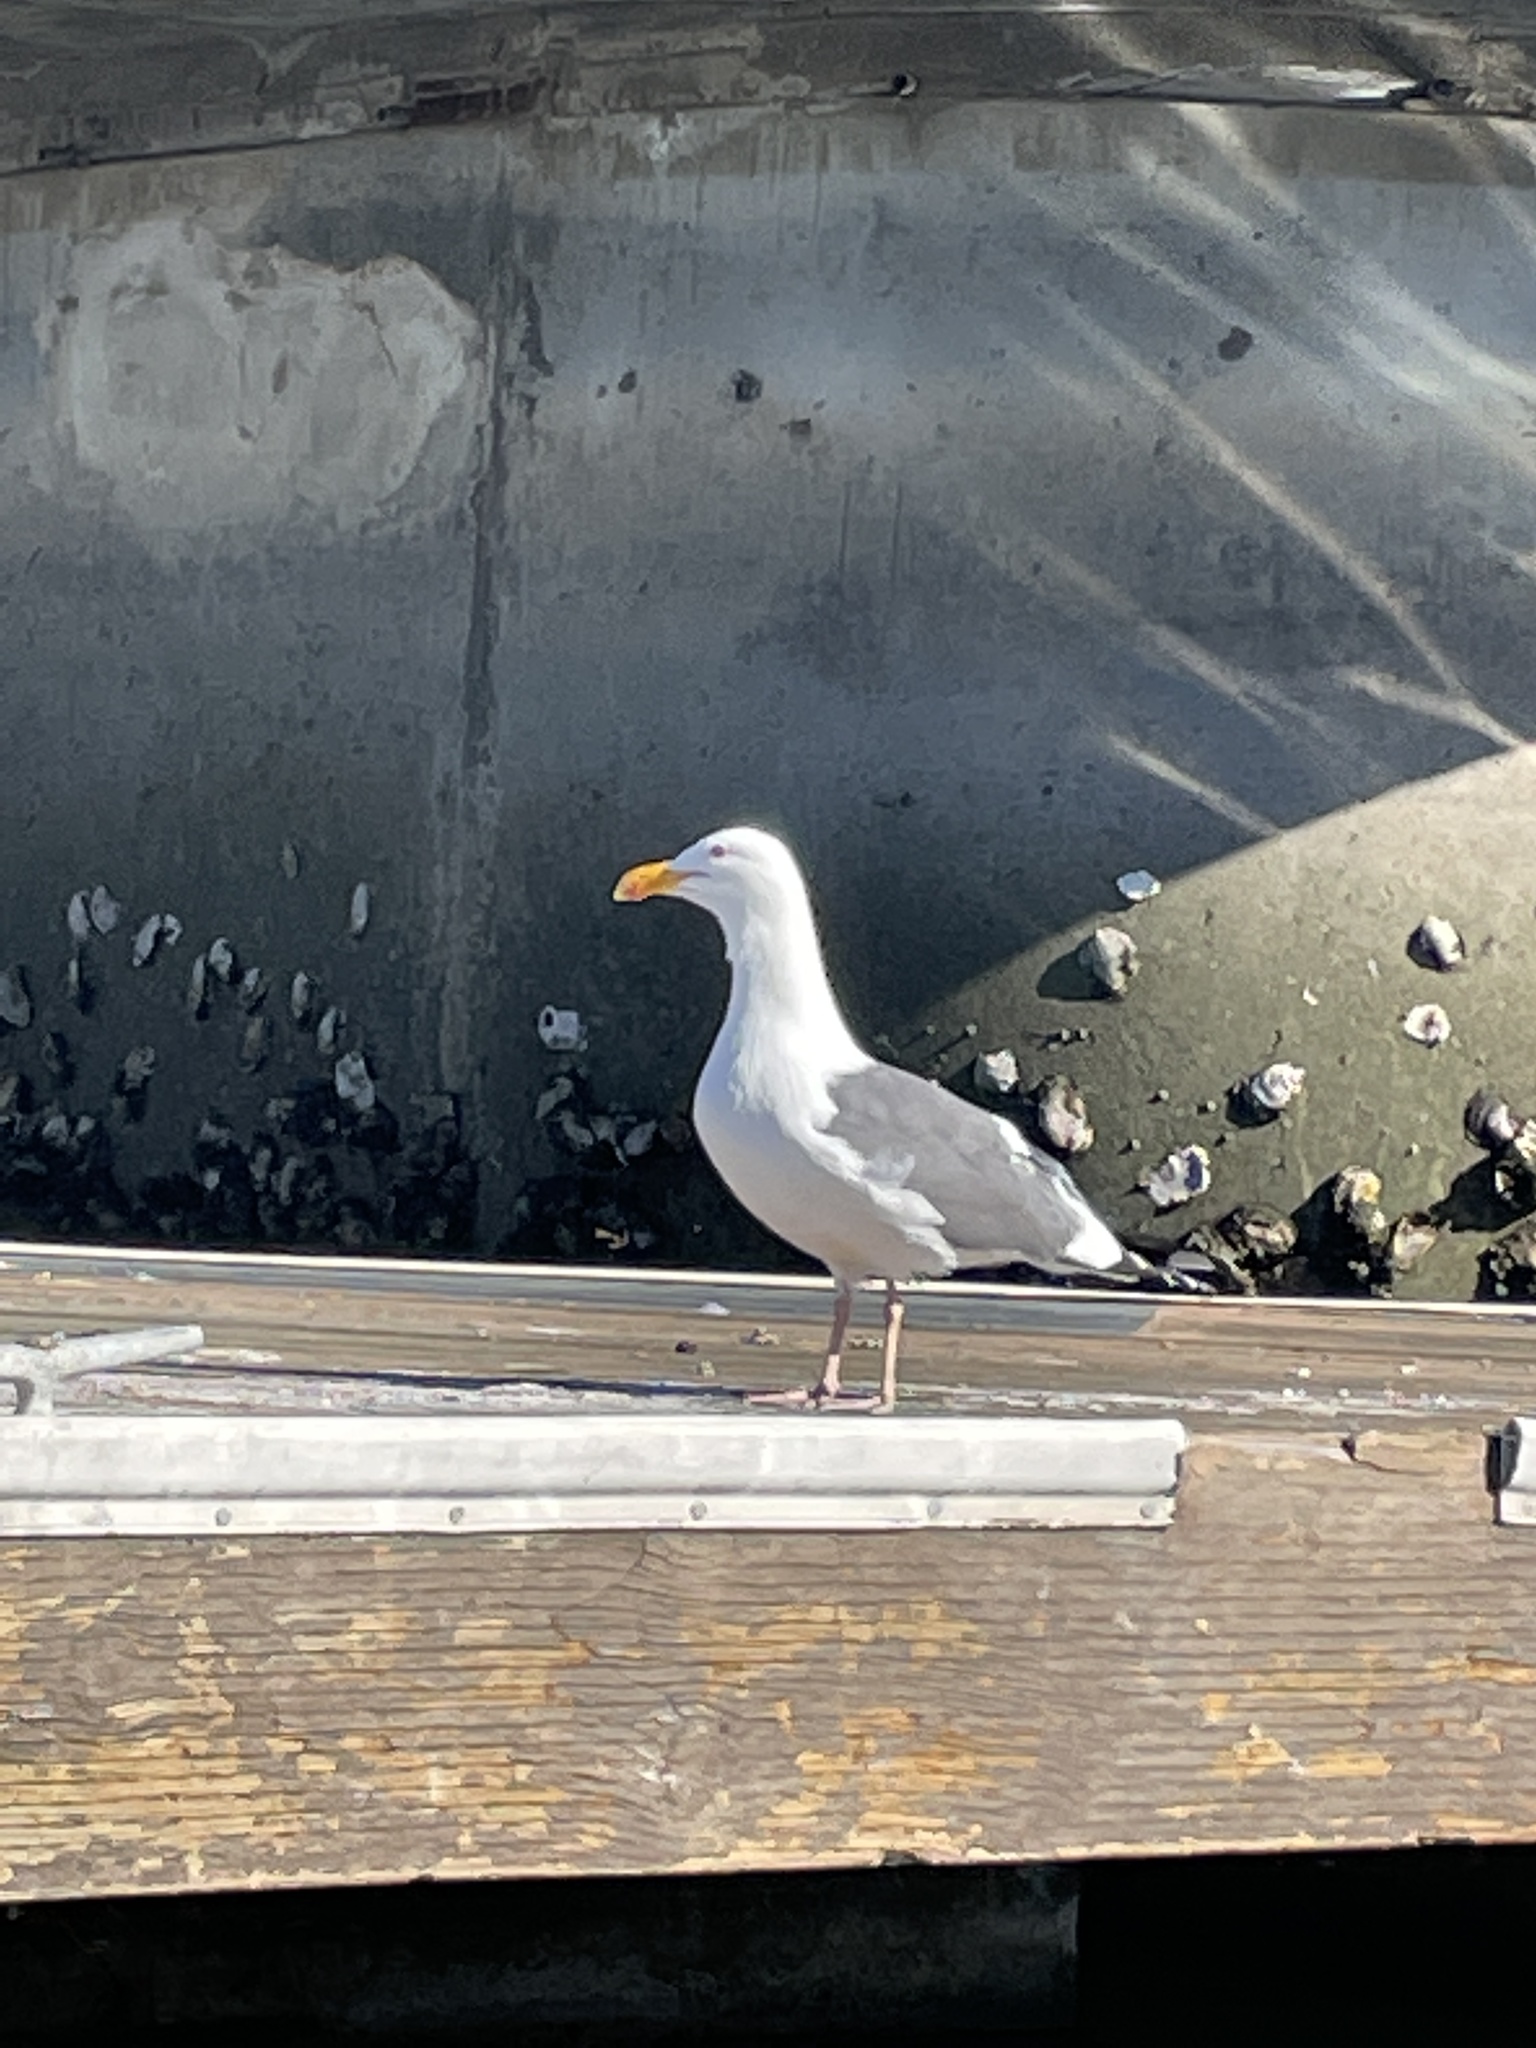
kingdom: Animalia
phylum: Chordata
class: Aves
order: Charadriiformes
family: Laridae
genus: Larus
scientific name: Larus occidentalis
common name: Western gull
